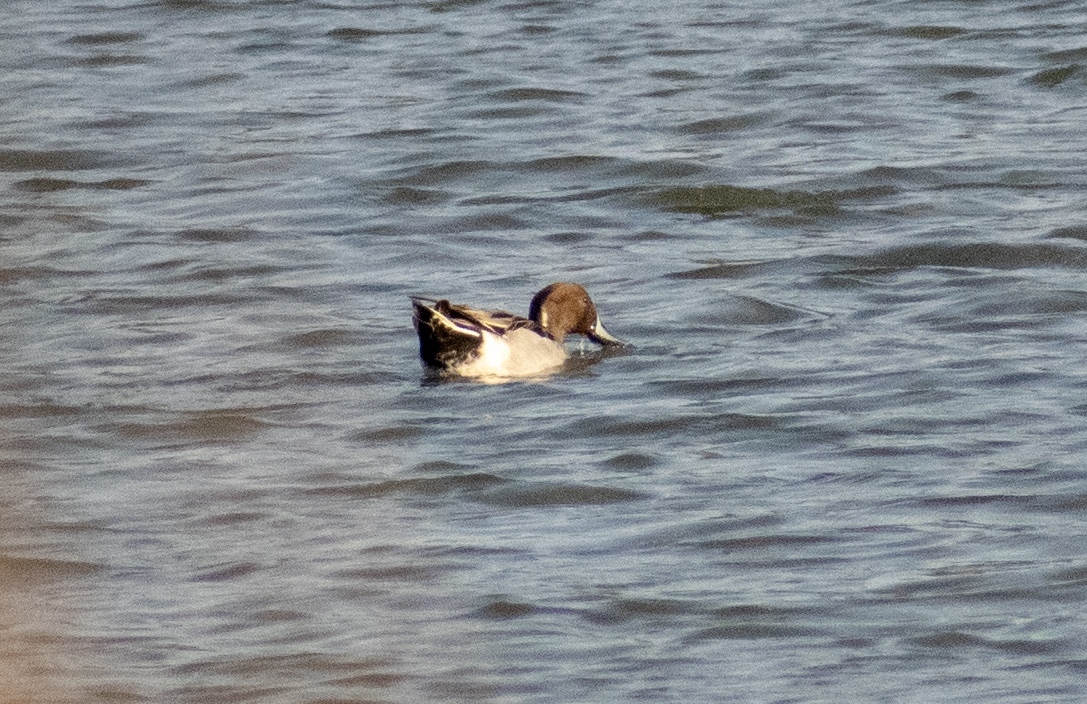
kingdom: Animalia
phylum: Chordata
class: Aves
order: Anseriformes
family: Anatidae
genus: Anas
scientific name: Anas acuta
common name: Northern pintail
